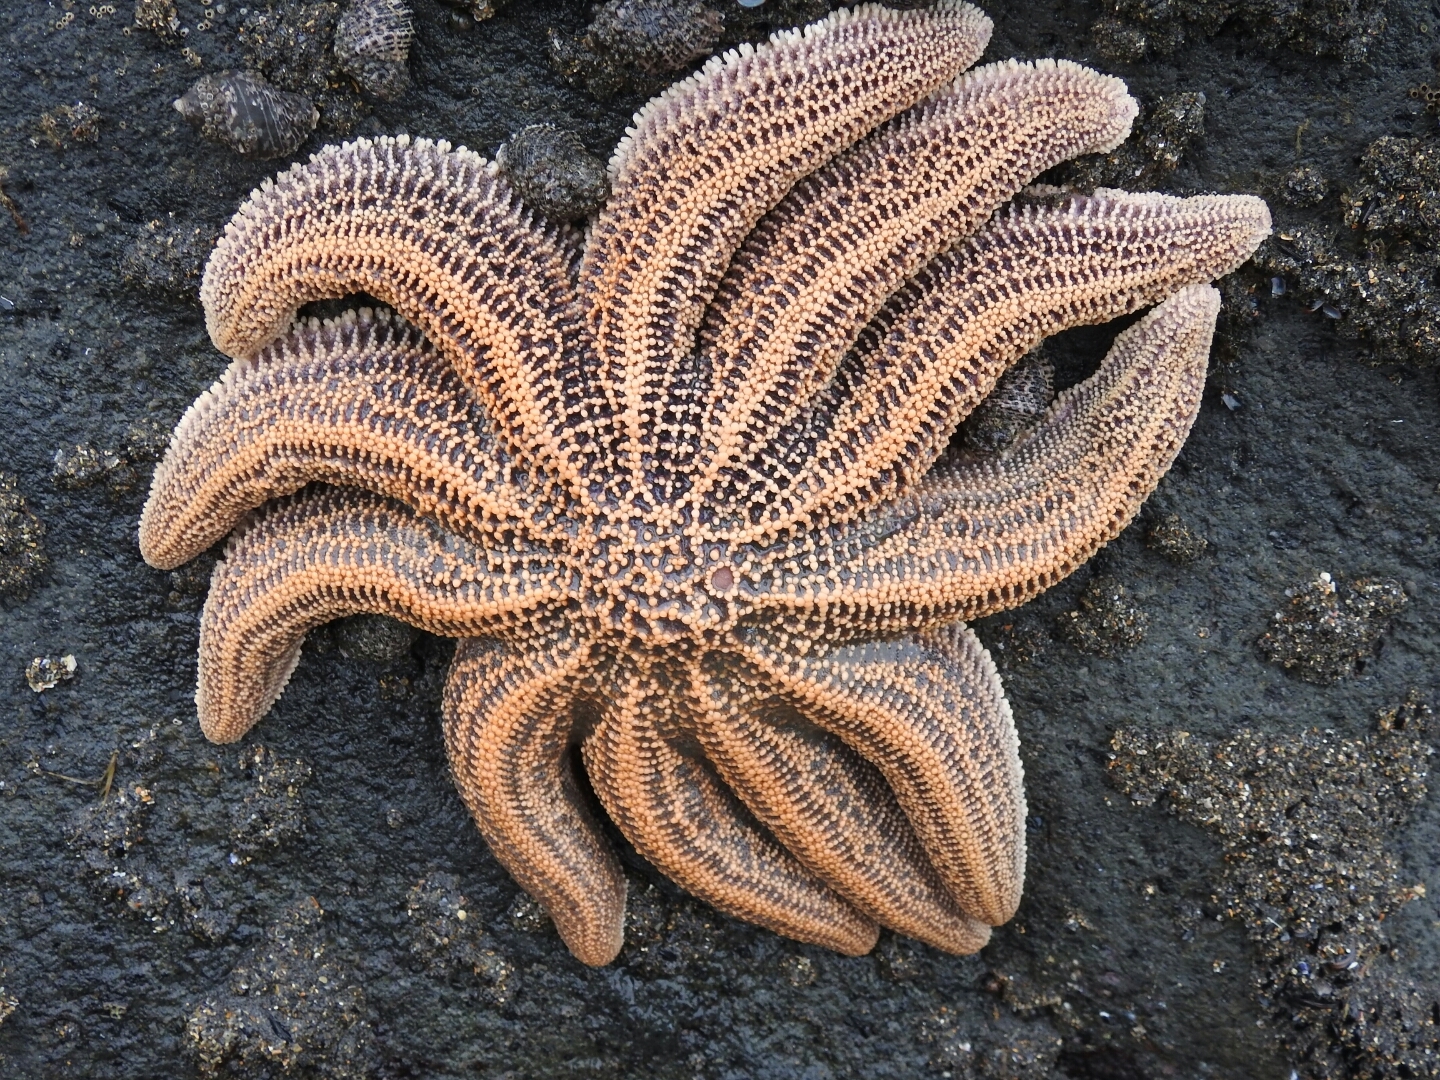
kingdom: Animalia
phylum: Echinodermata
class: Asteroidea
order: Forcipulatida
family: Stichasteridae
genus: Stichaster
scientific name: Stichaster australis
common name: Reef starfish
